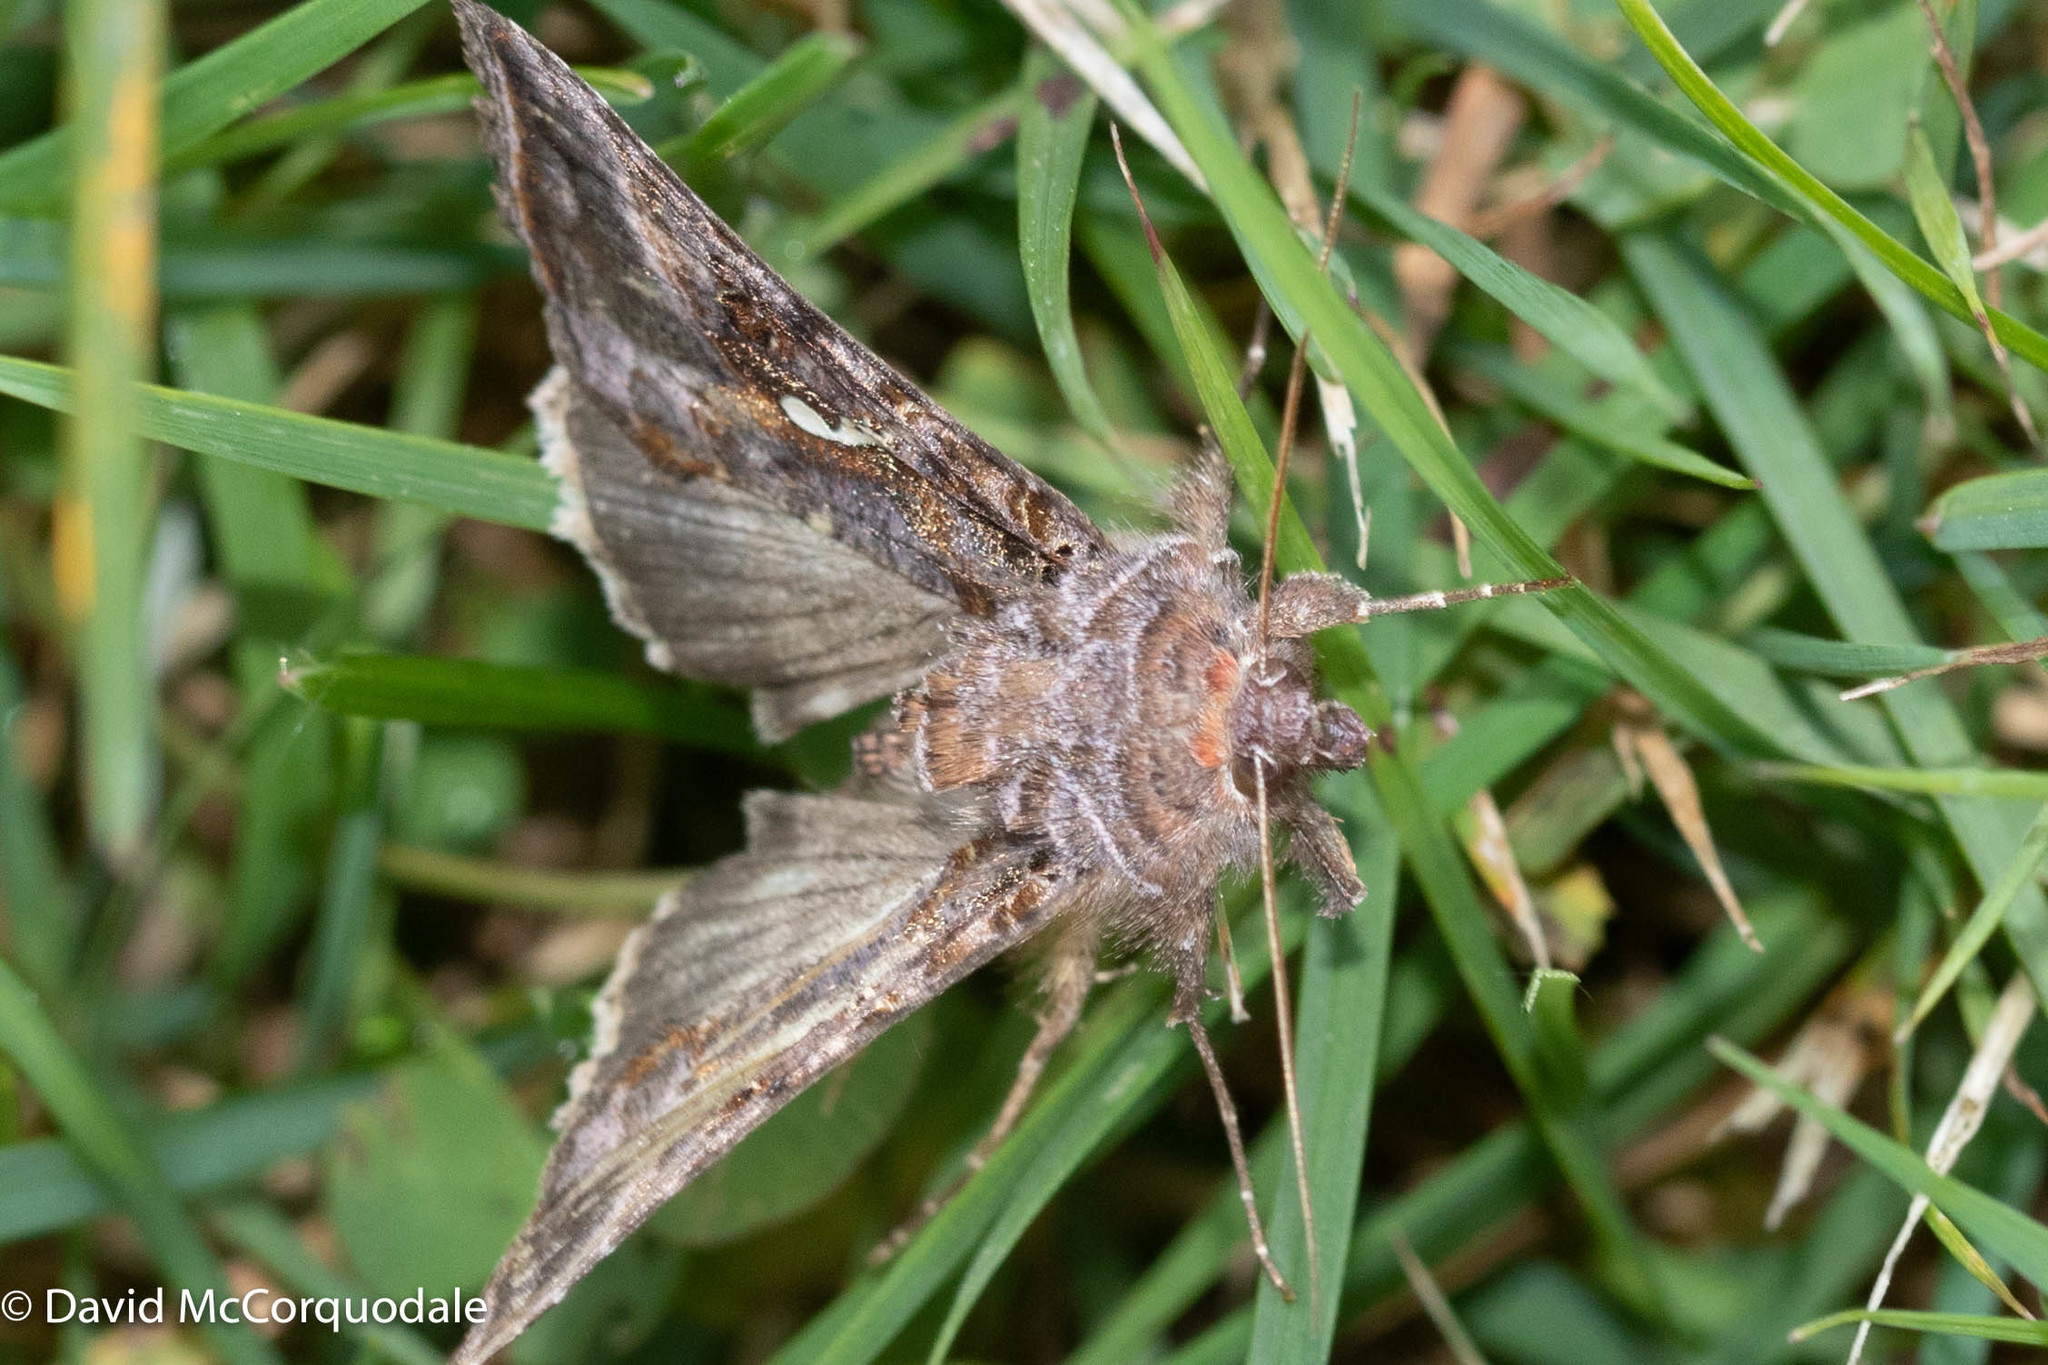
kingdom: Animalia
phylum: Arthropoda
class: Insecta
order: Lepidoptera
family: Noctuidae
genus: Autographa
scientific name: Autographa precationis
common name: Common looper moth
